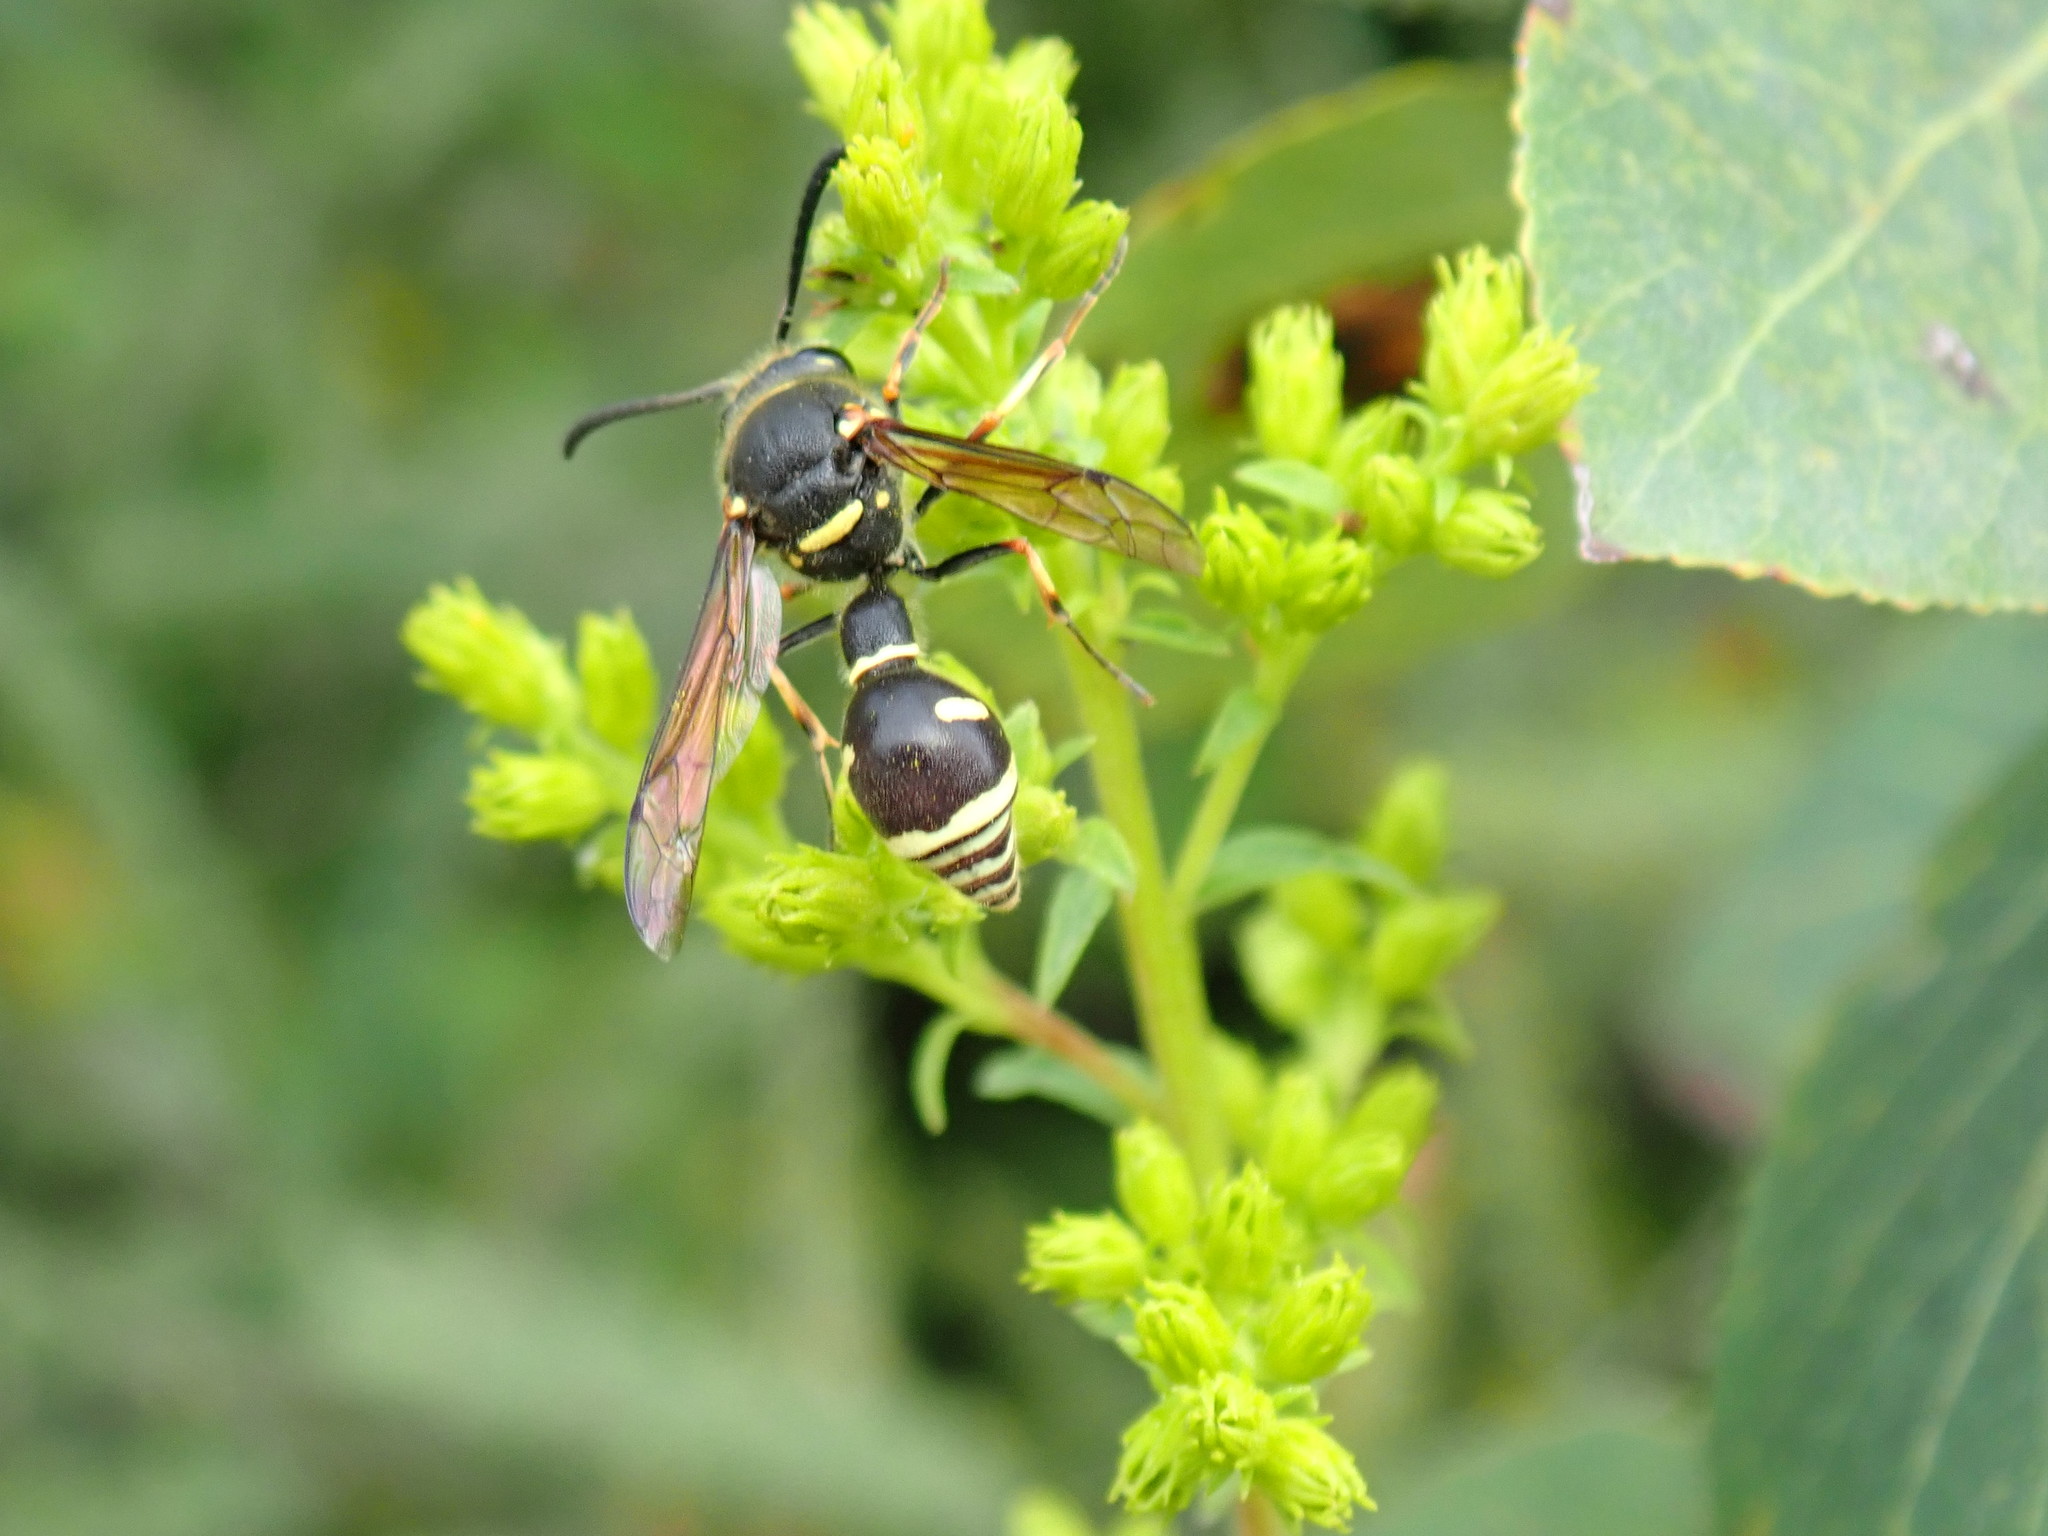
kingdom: Animalia
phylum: Arthropoda
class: Insecta
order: Hymenoptera
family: Vespidae
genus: Eumenes
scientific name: Eumenes crucifera
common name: Cross potter wasp
